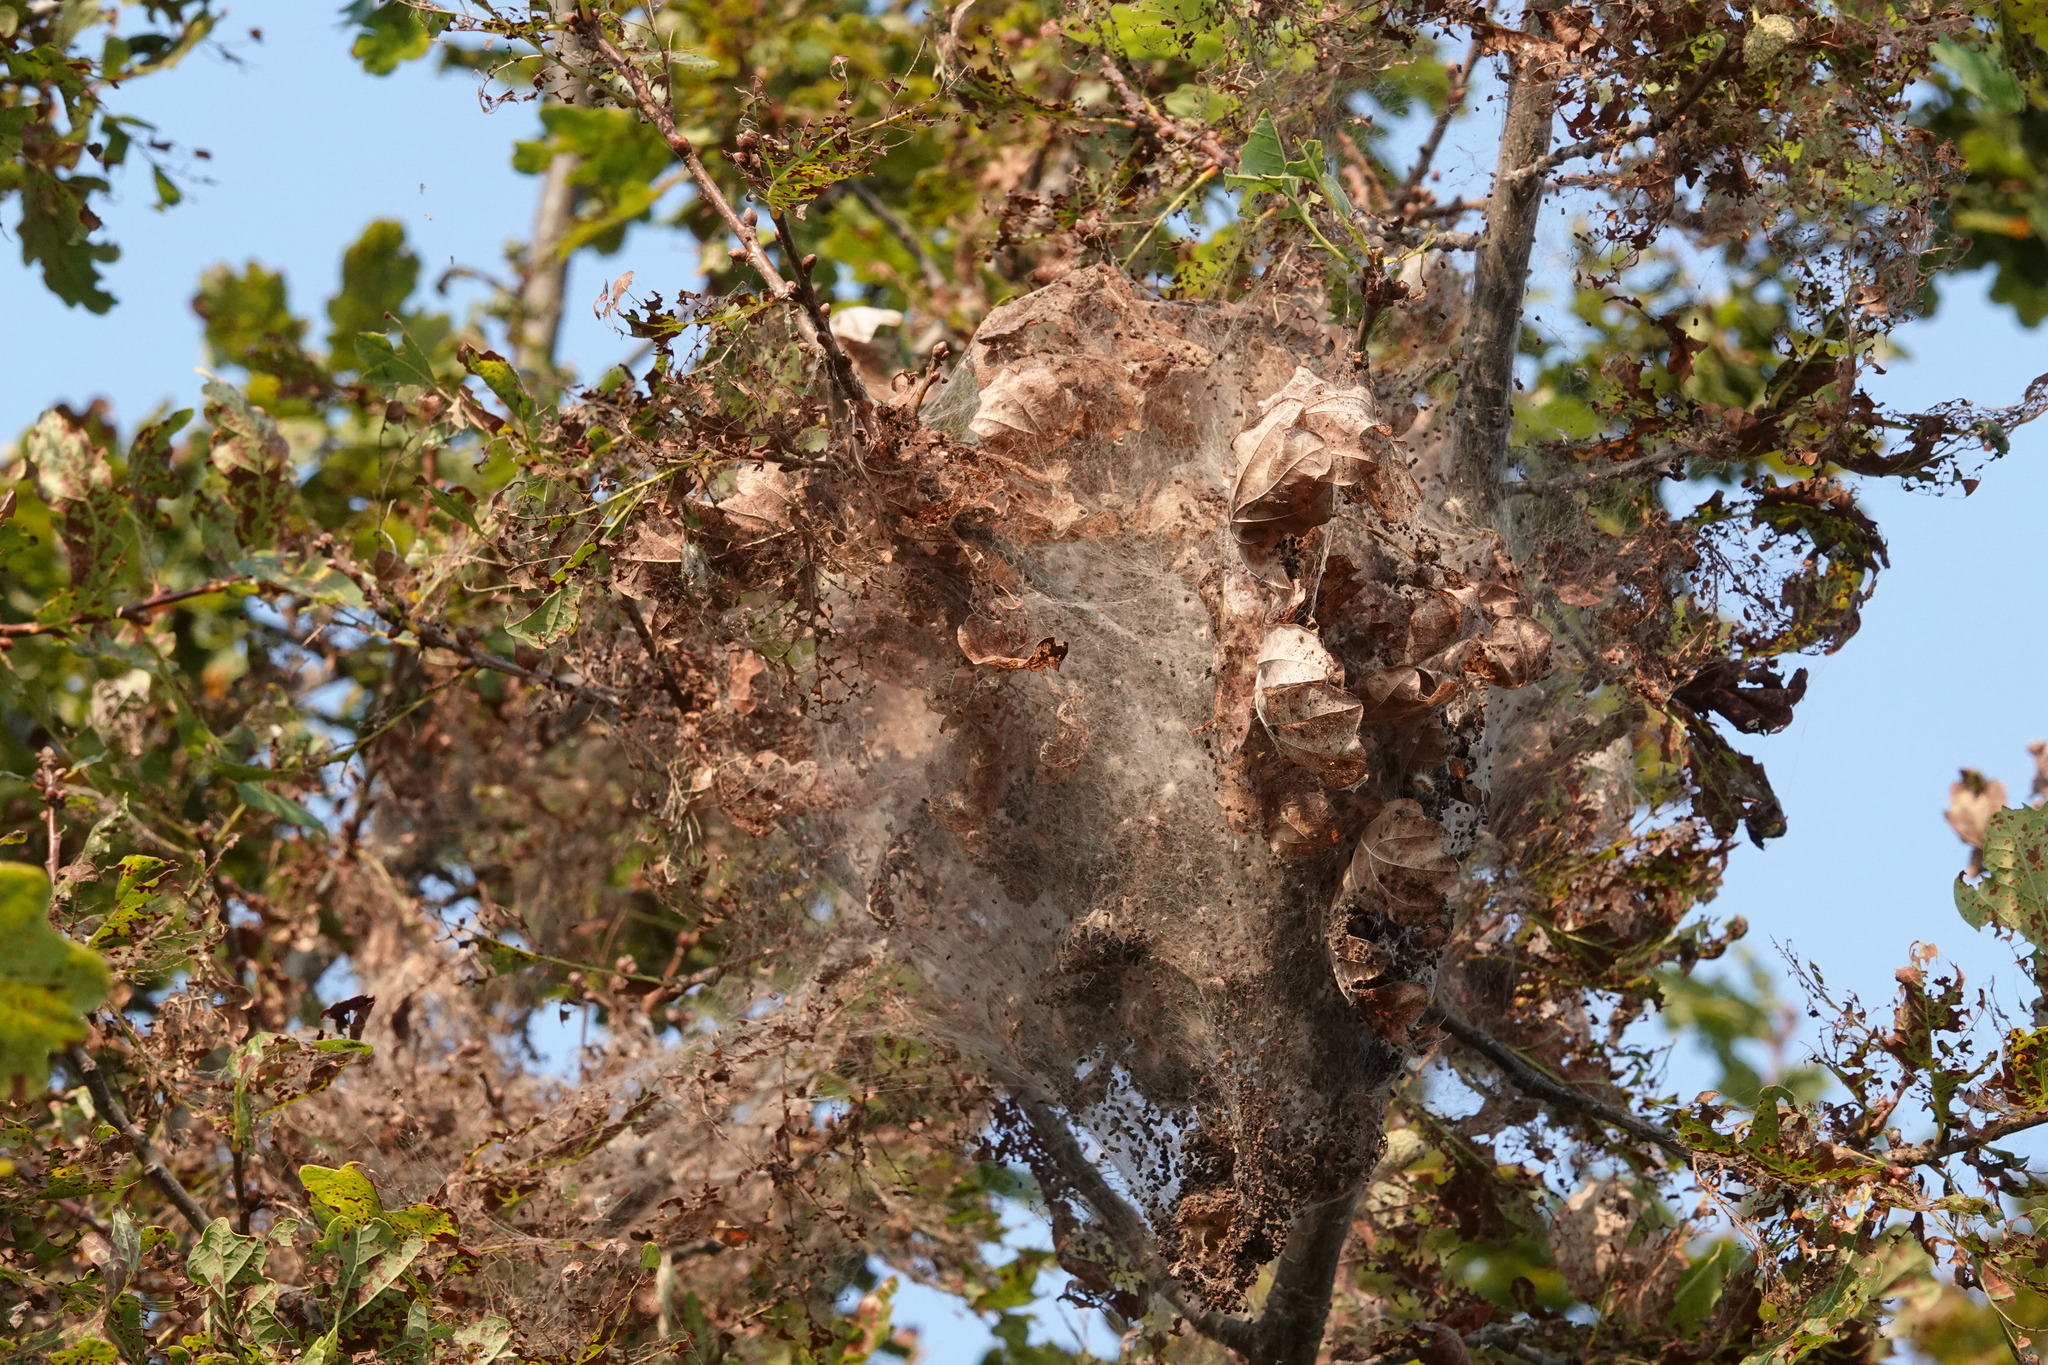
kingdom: Animalia
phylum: Arthropoda
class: Insecta
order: Lepidoptera
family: Erebidae
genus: Hyphantria
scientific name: Hyphantria cunea
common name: American white moth
